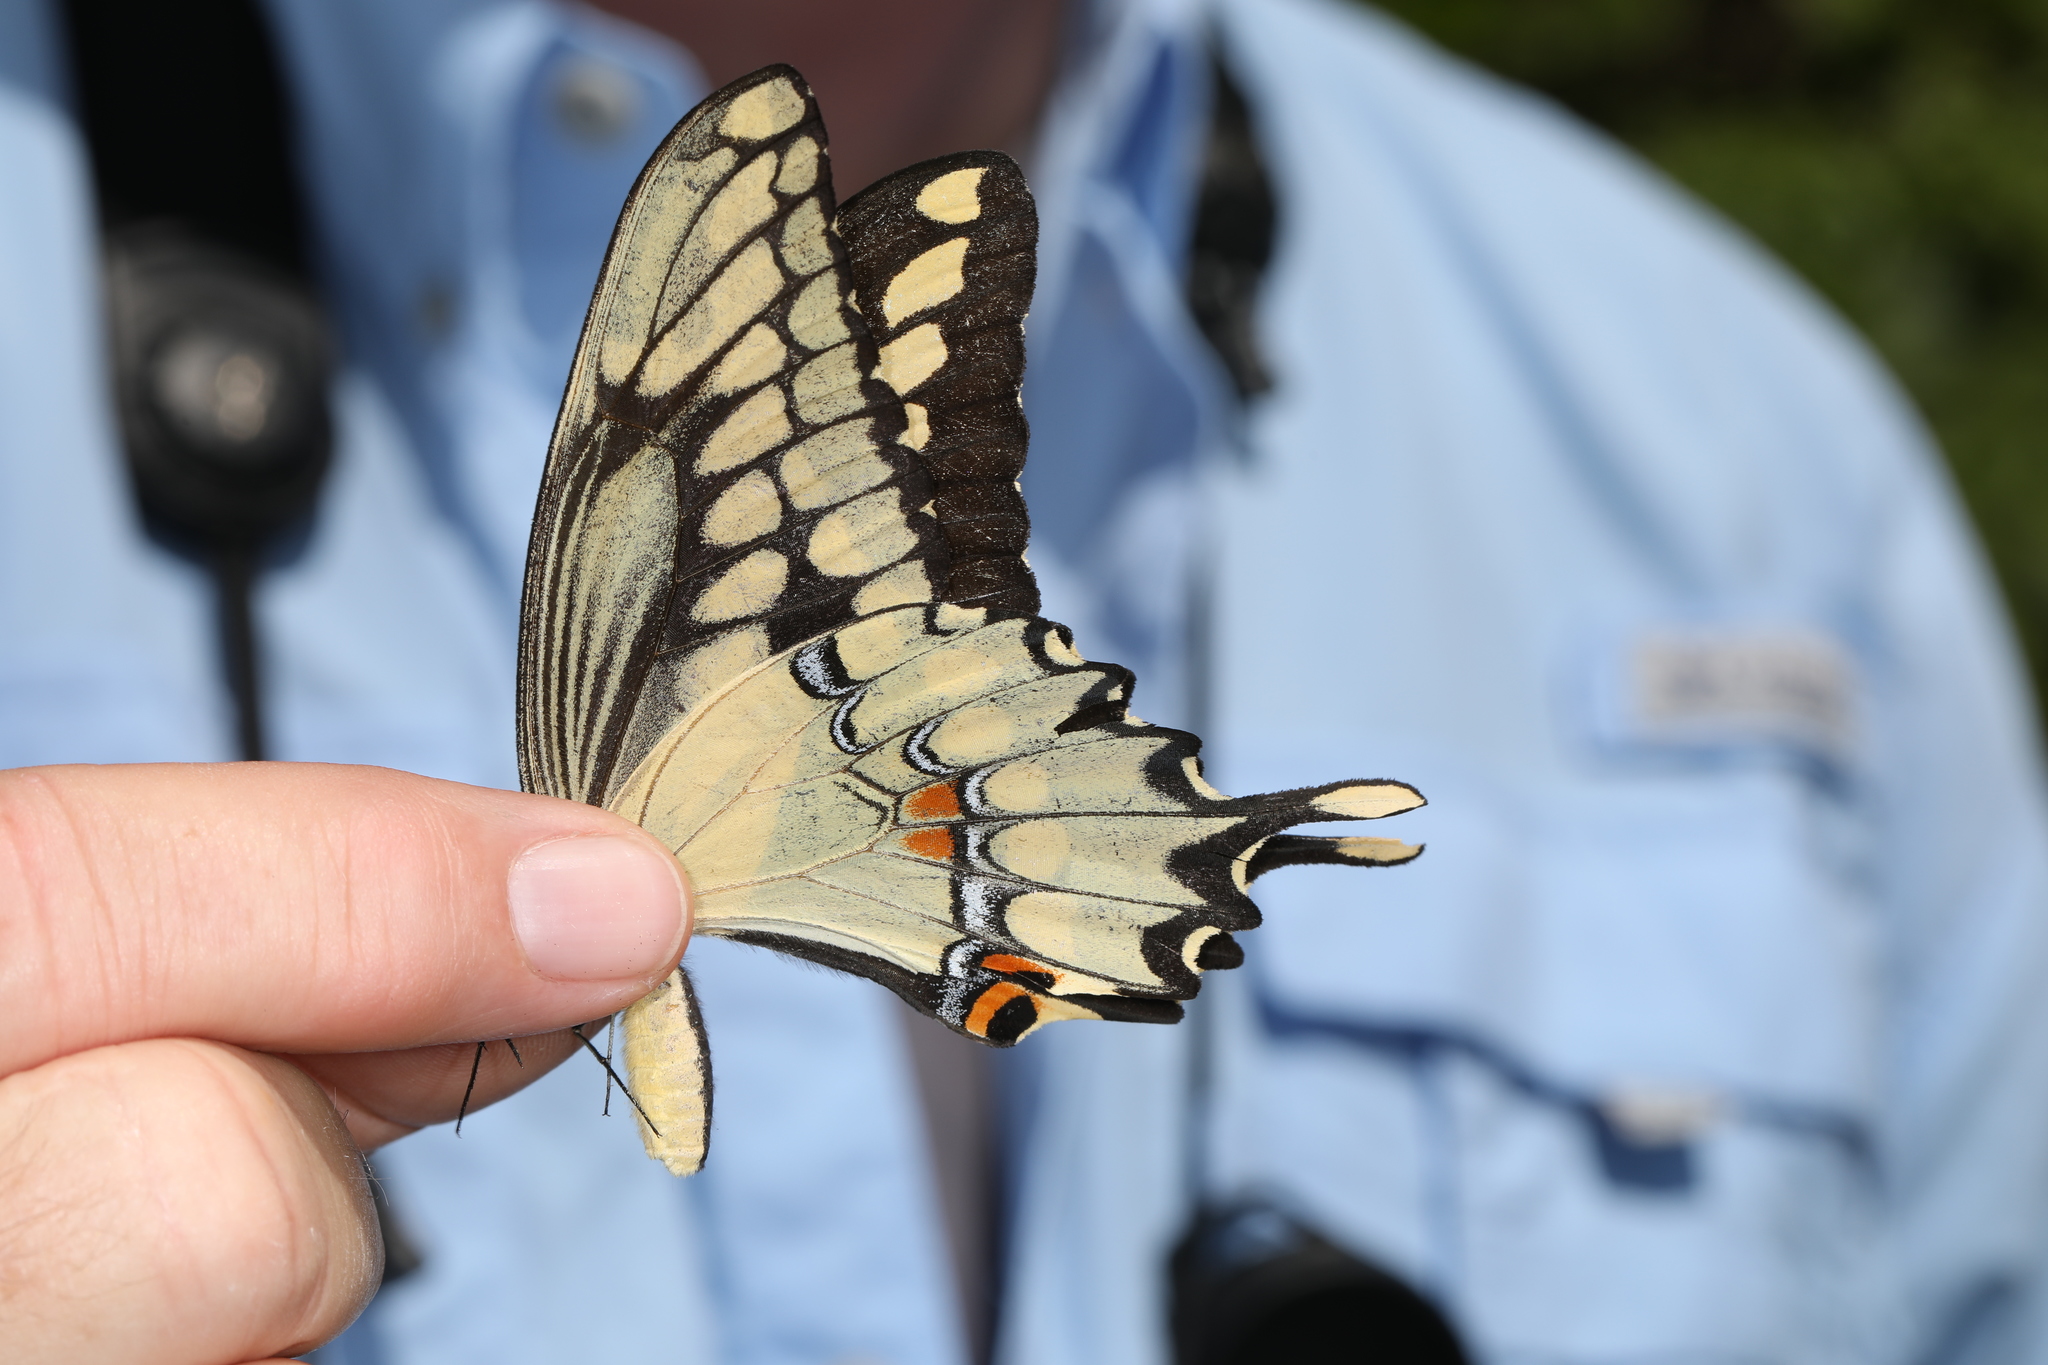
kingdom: Animalia
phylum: Arthropoda
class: Insecta
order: Lepidoptera
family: Papilionidae
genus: Papilio
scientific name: Papilio cresphontes
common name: Giant swallowtail
